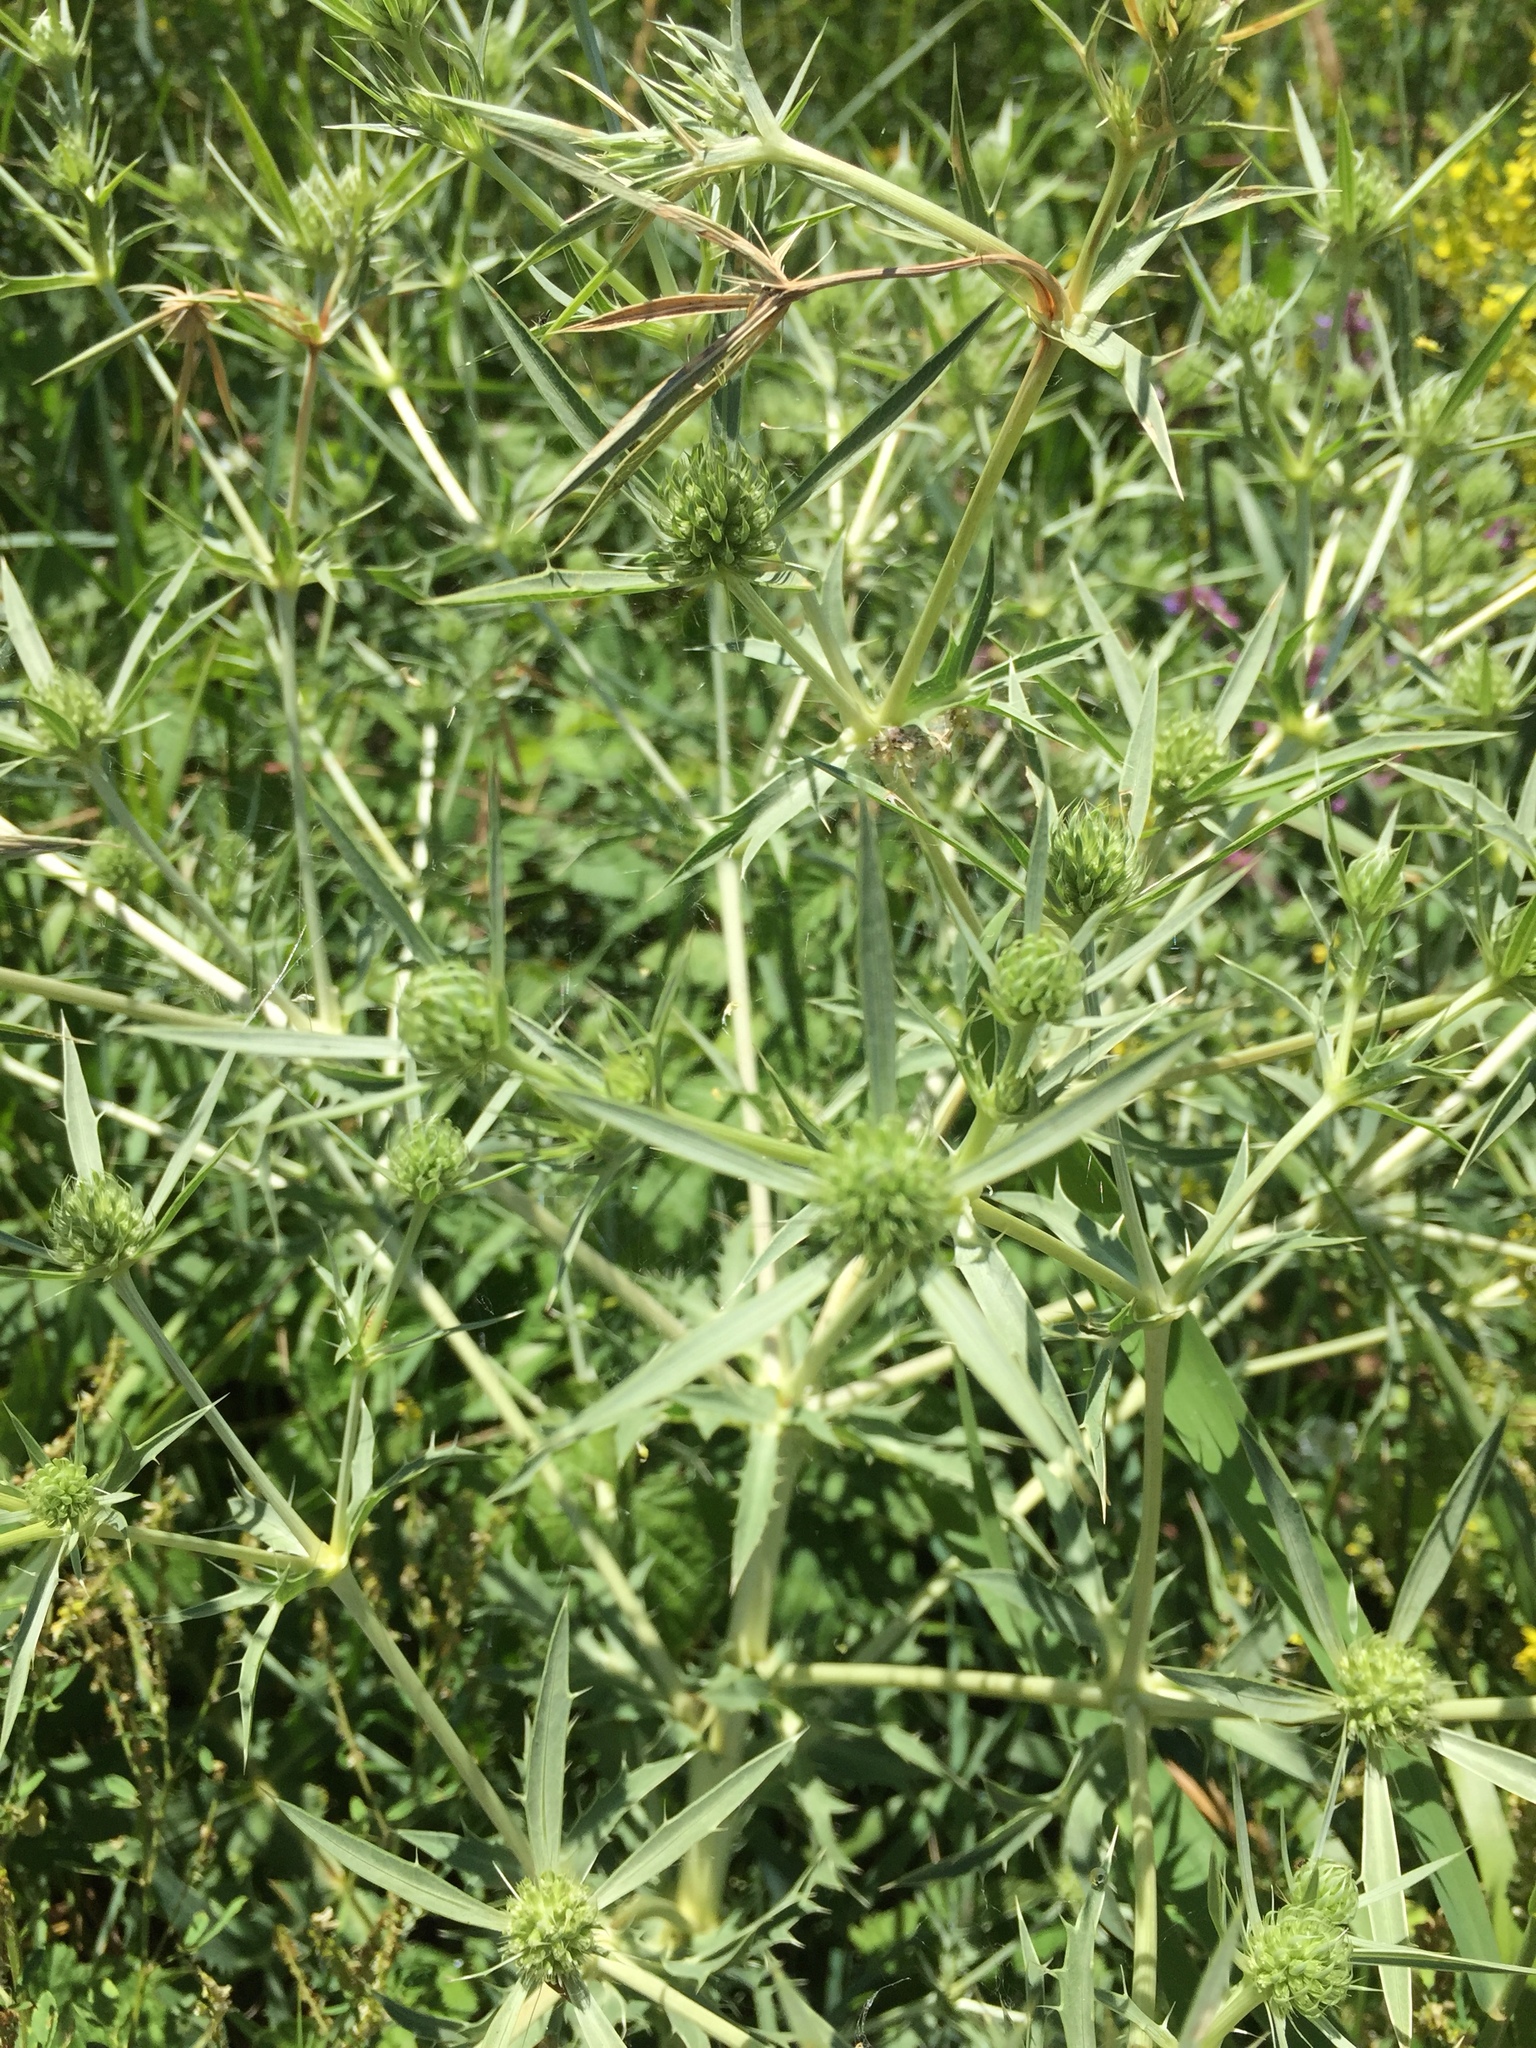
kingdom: Plantae
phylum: Tracheophyta
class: Magnoliopsida
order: Apiales
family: Apiaceae
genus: Eryngium
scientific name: Eryngium campestre
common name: Field eryngo
